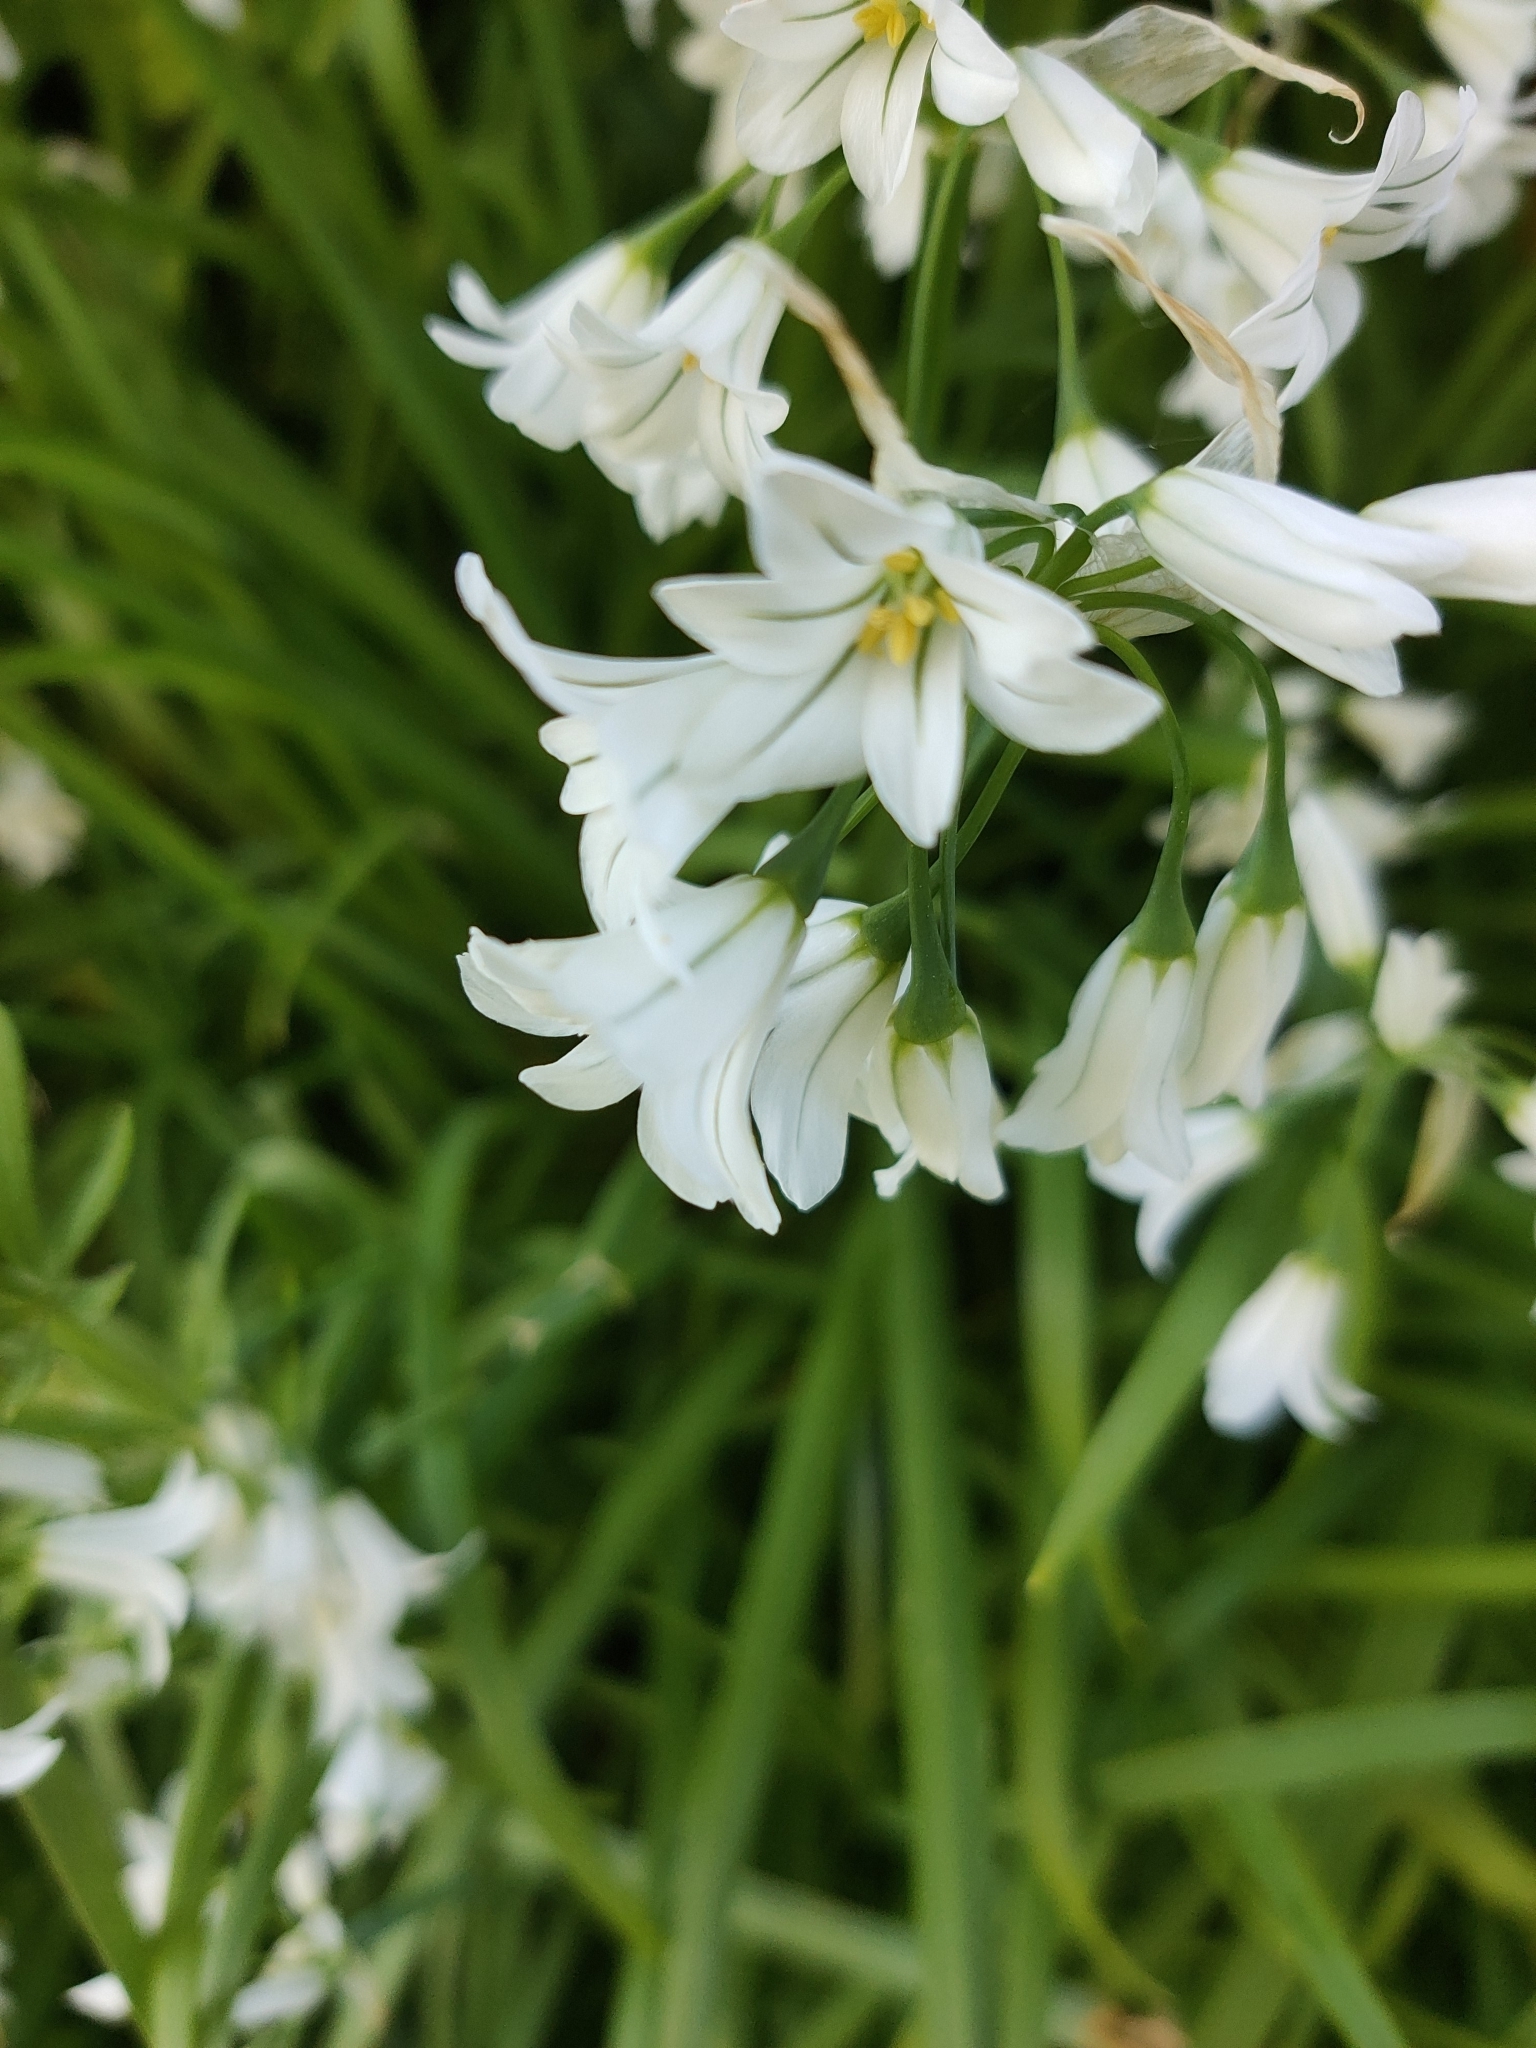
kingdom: Plantae
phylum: Tracheophyta
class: Liliopsida
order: Asparagales
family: Amaryllidaceae
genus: Allium
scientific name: Allium triquetrum
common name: Three-cornered garlic
